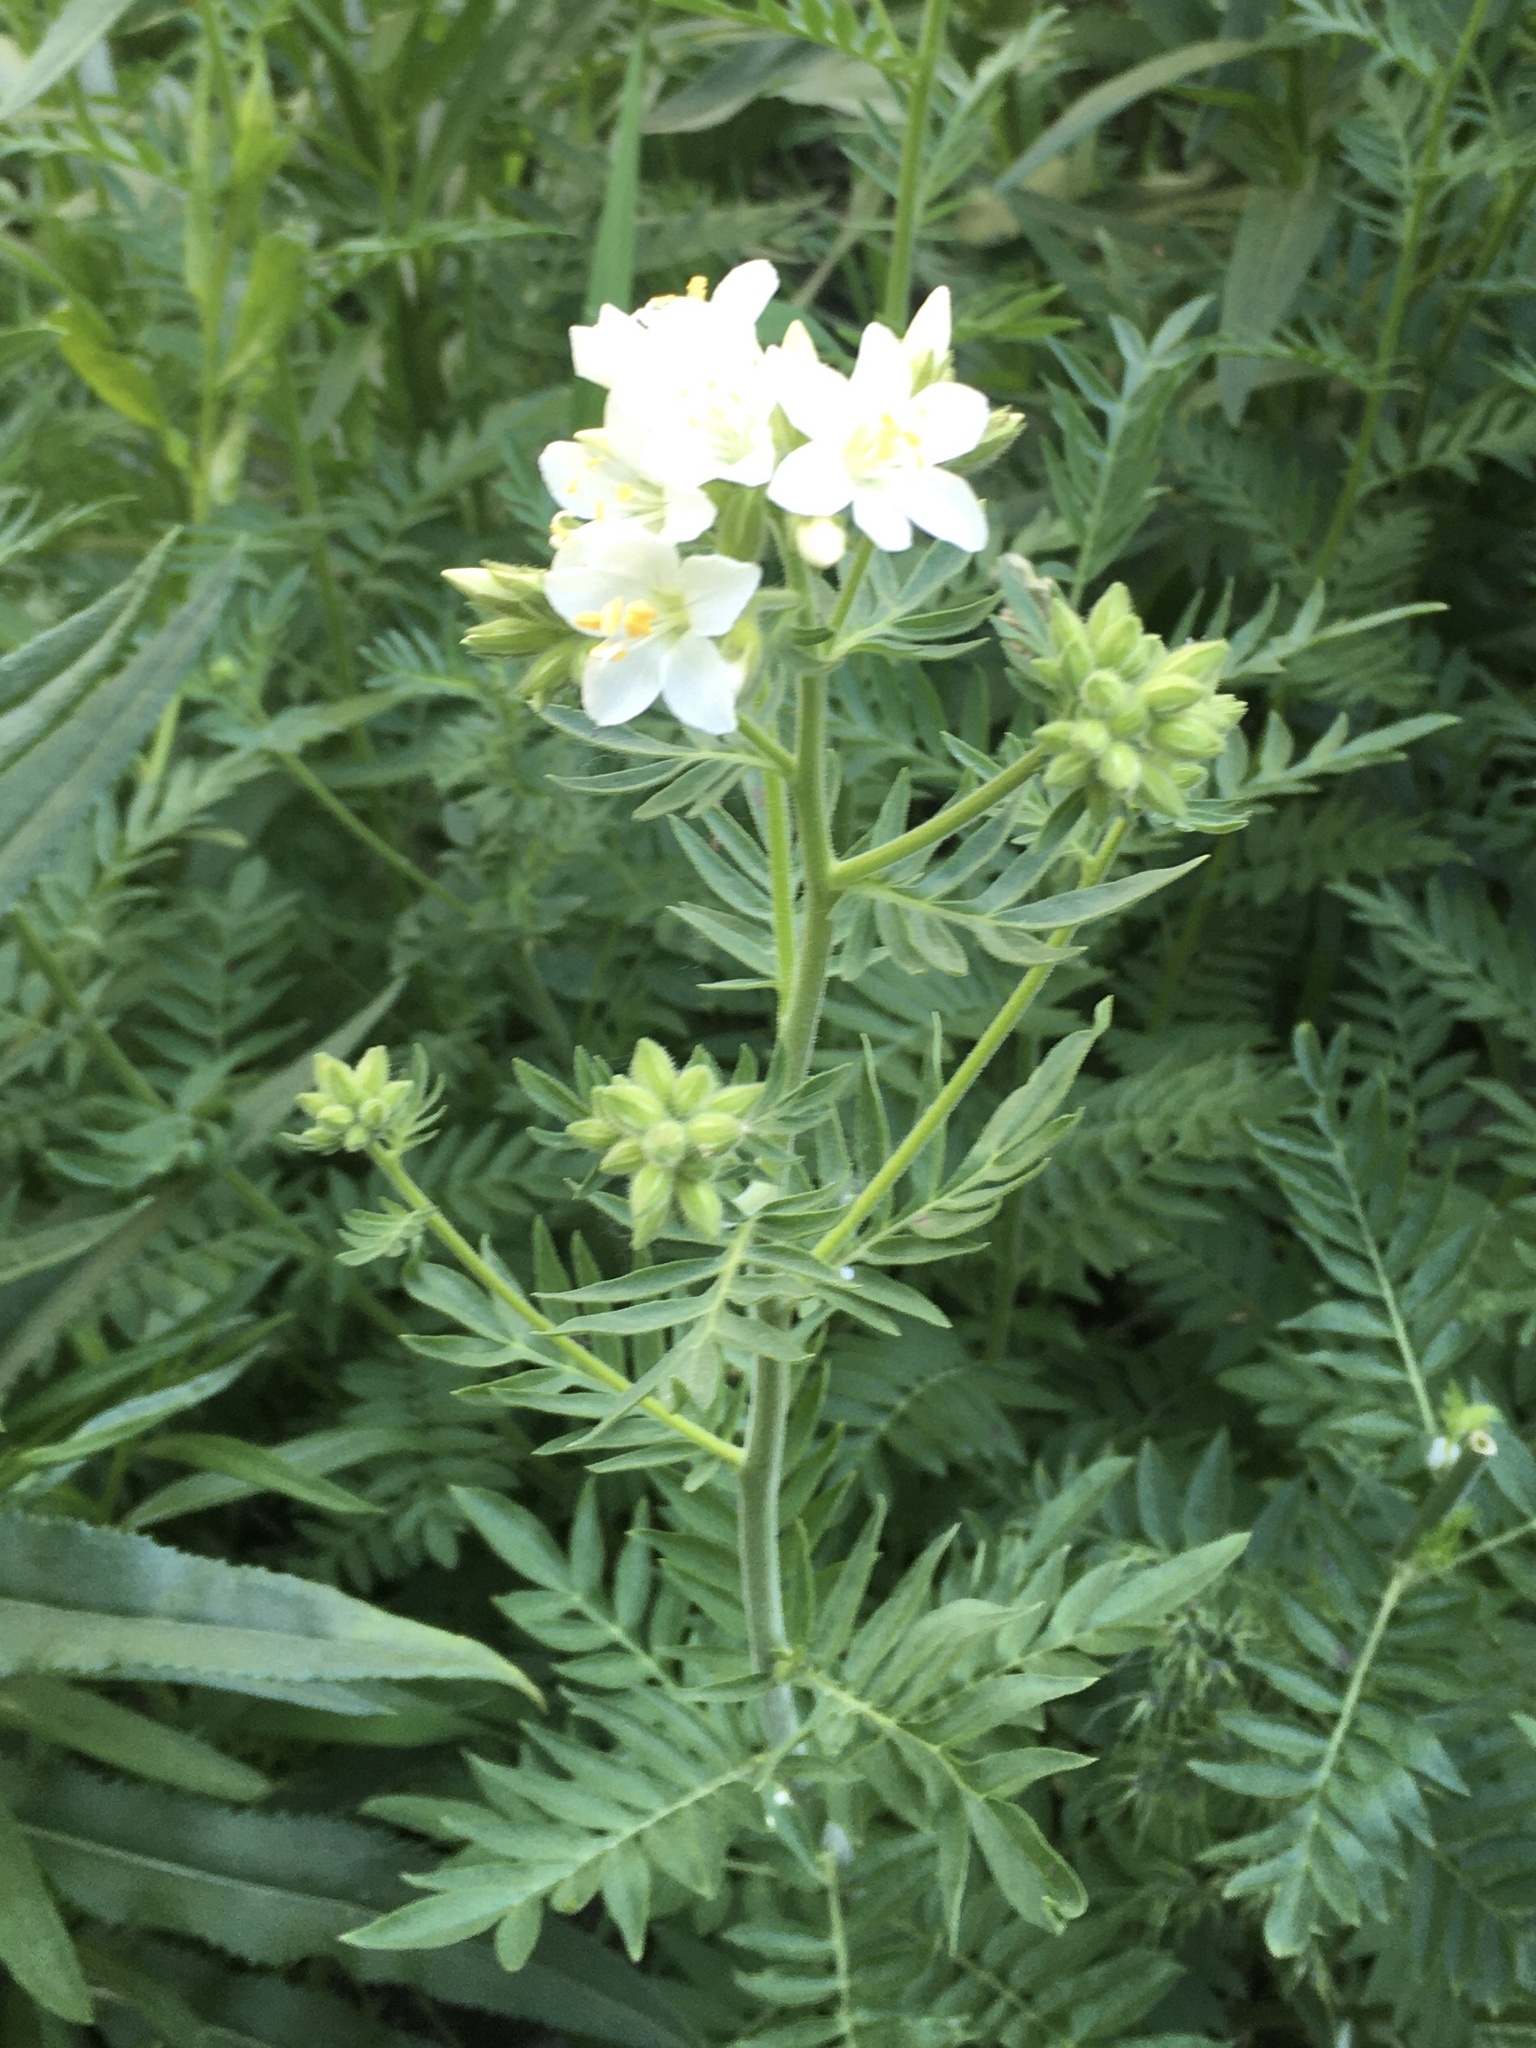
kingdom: Plantae
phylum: Tracheophyta
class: Magnoliopsida
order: Ericales
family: Polemoniaceae
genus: Polemonium
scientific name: Polemonium foliosissimum
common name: Leafy jacob's-ladder
